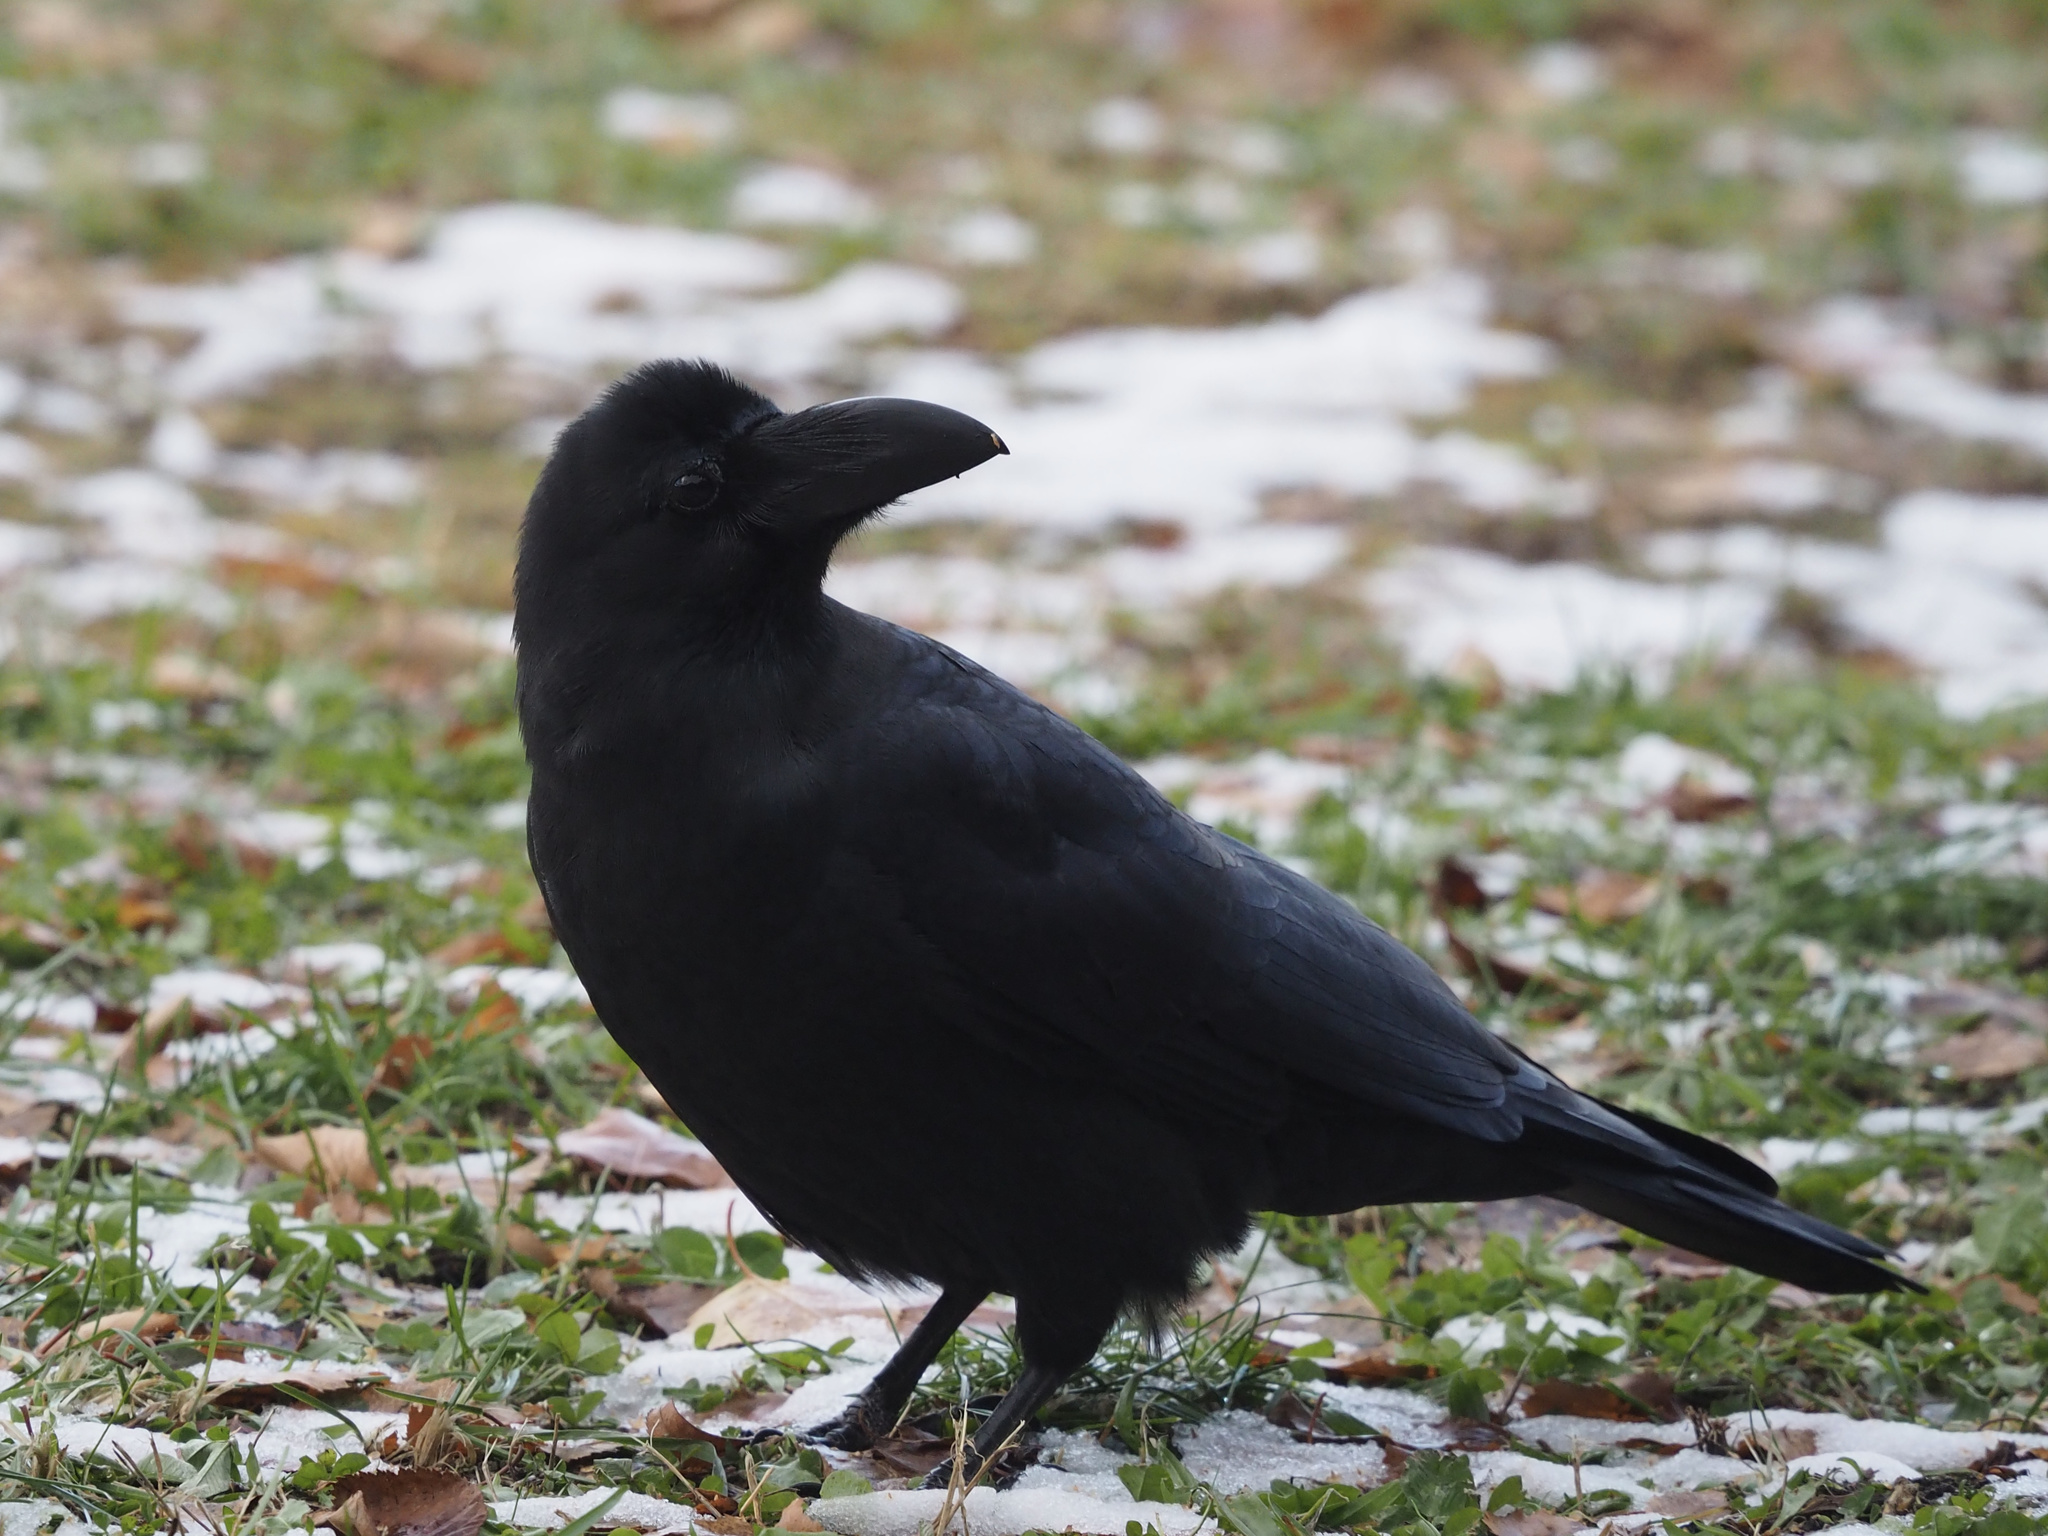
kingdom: Animalia
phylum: Chordata
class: Aves
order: Passeriformes
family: Corvidae
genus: Corvus
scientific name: Corvus macrorhynchos
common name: Large-billed crow
